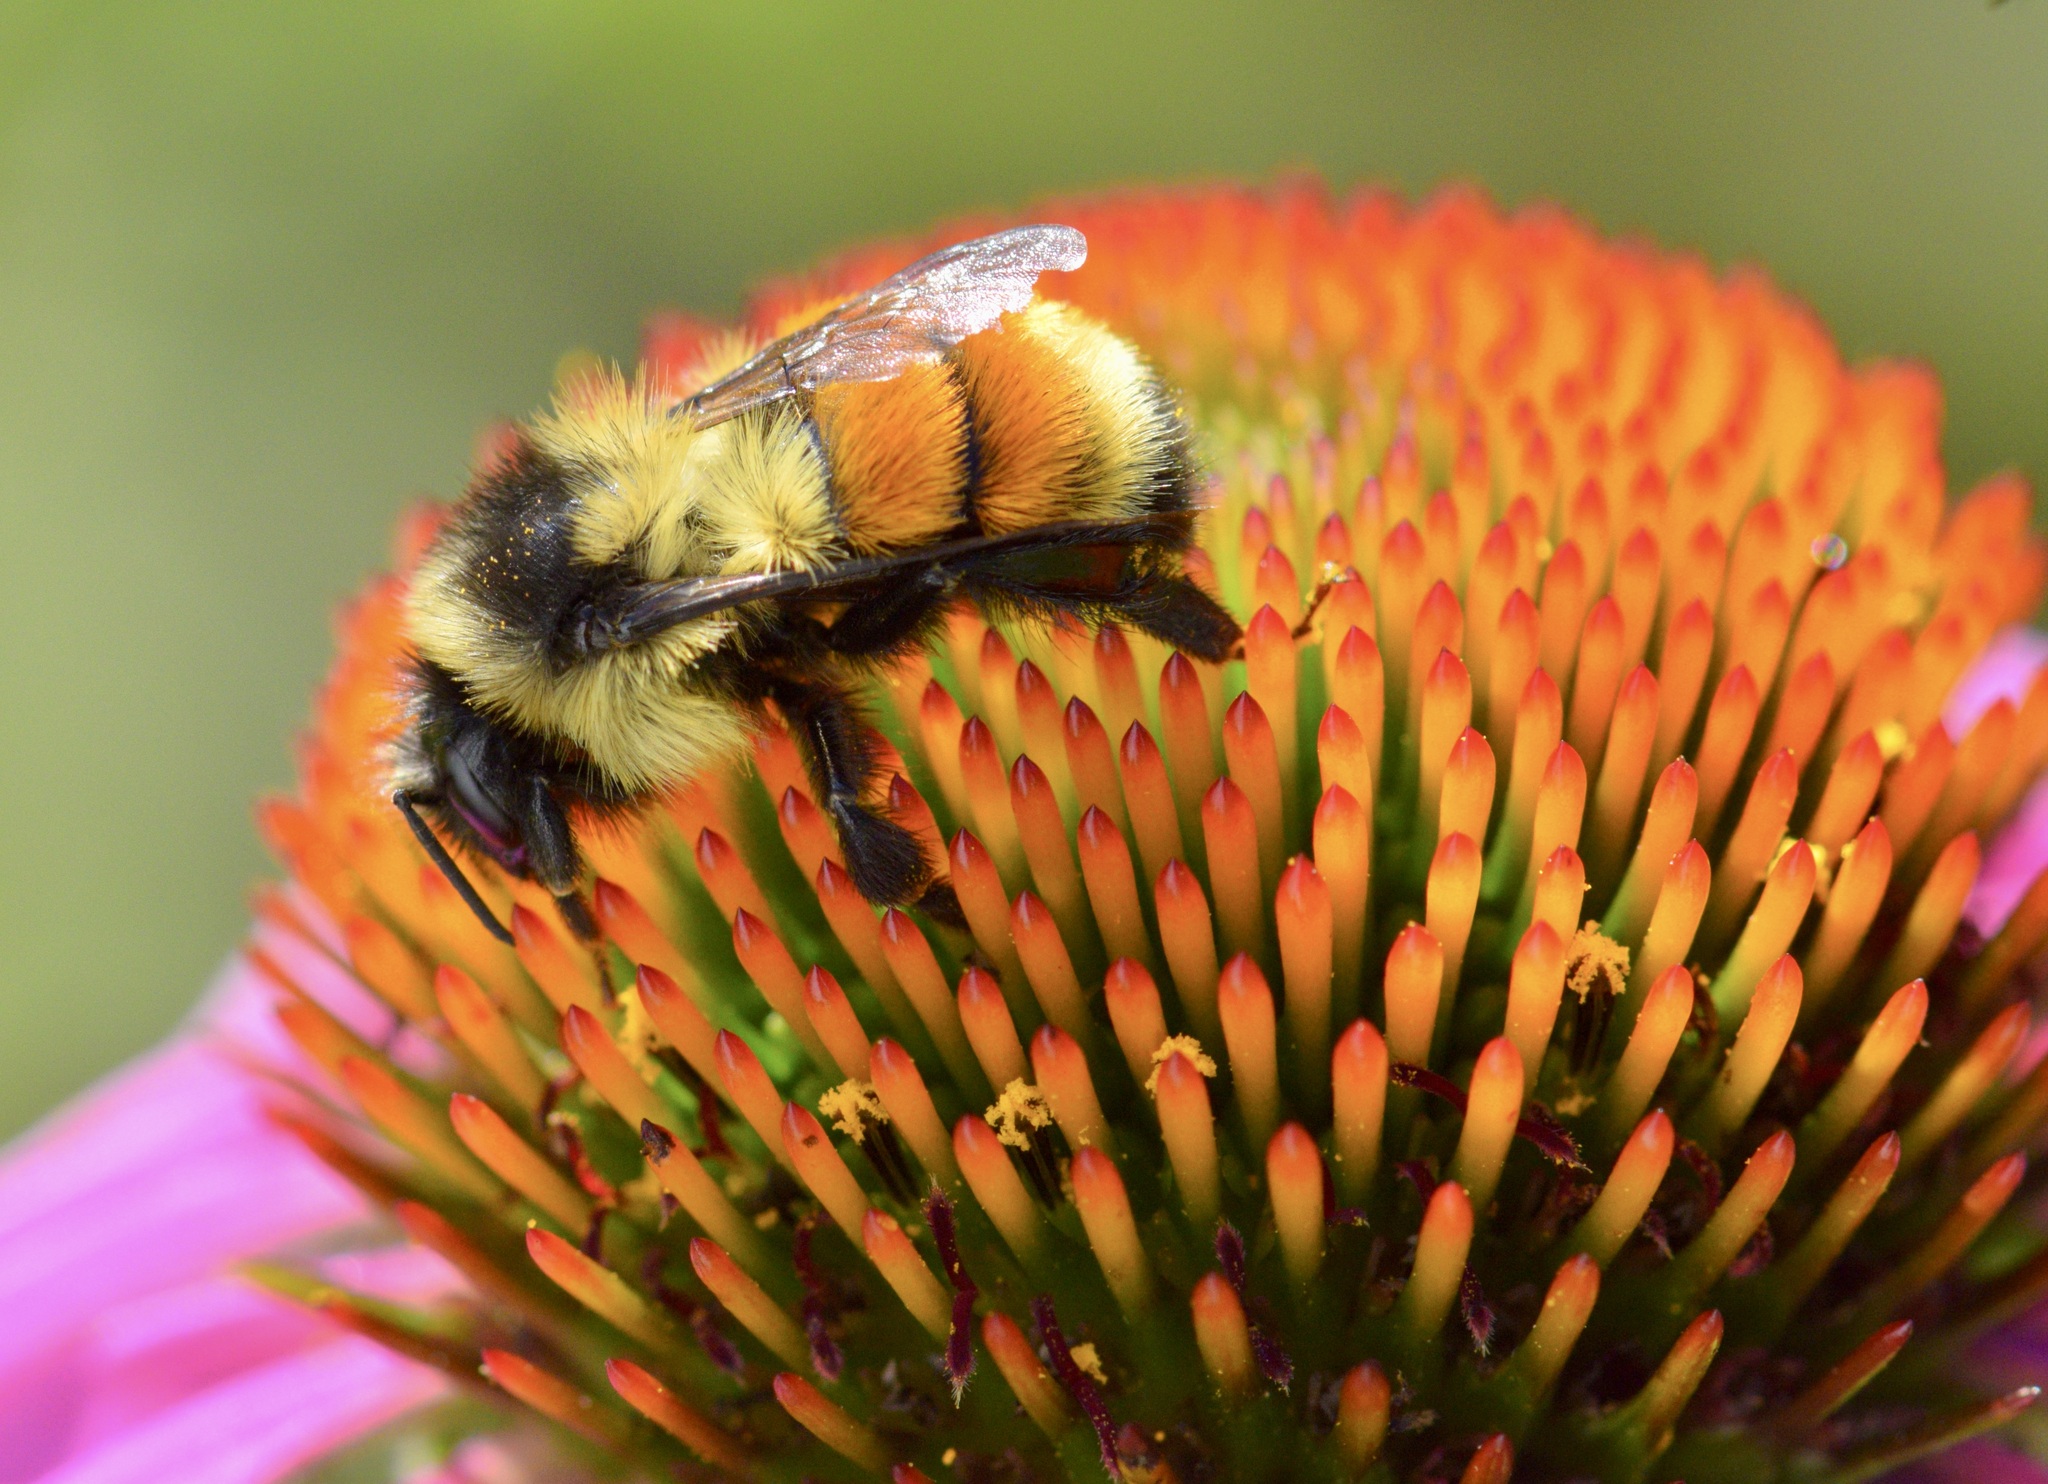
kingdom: Animalia
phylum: Arthropoda
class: Insecta
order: Hymenoptera
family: Apidae
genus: Bombus
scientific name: Bombus ternarius
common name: Tri-colored bumble bee
